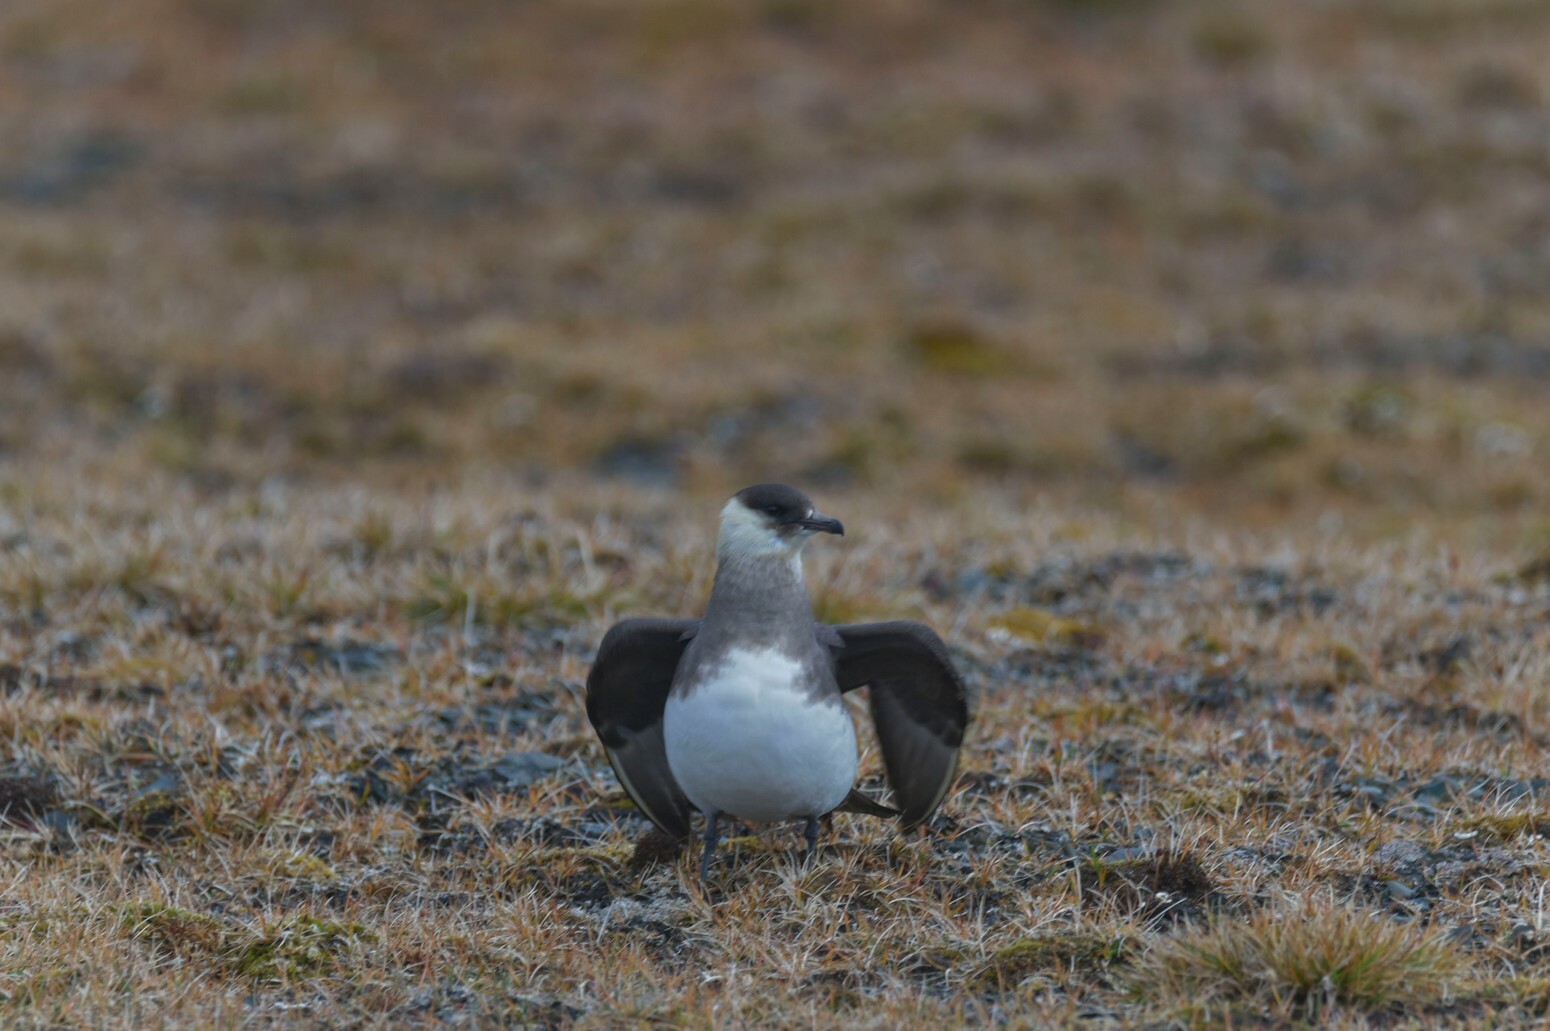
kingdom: Animalia
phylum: Chordata
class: Aves
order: Charadriiformes
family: Stercorariidae
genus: Stercorarius
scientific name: Stercorarius parasiticus
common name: Parasitic jaeger
